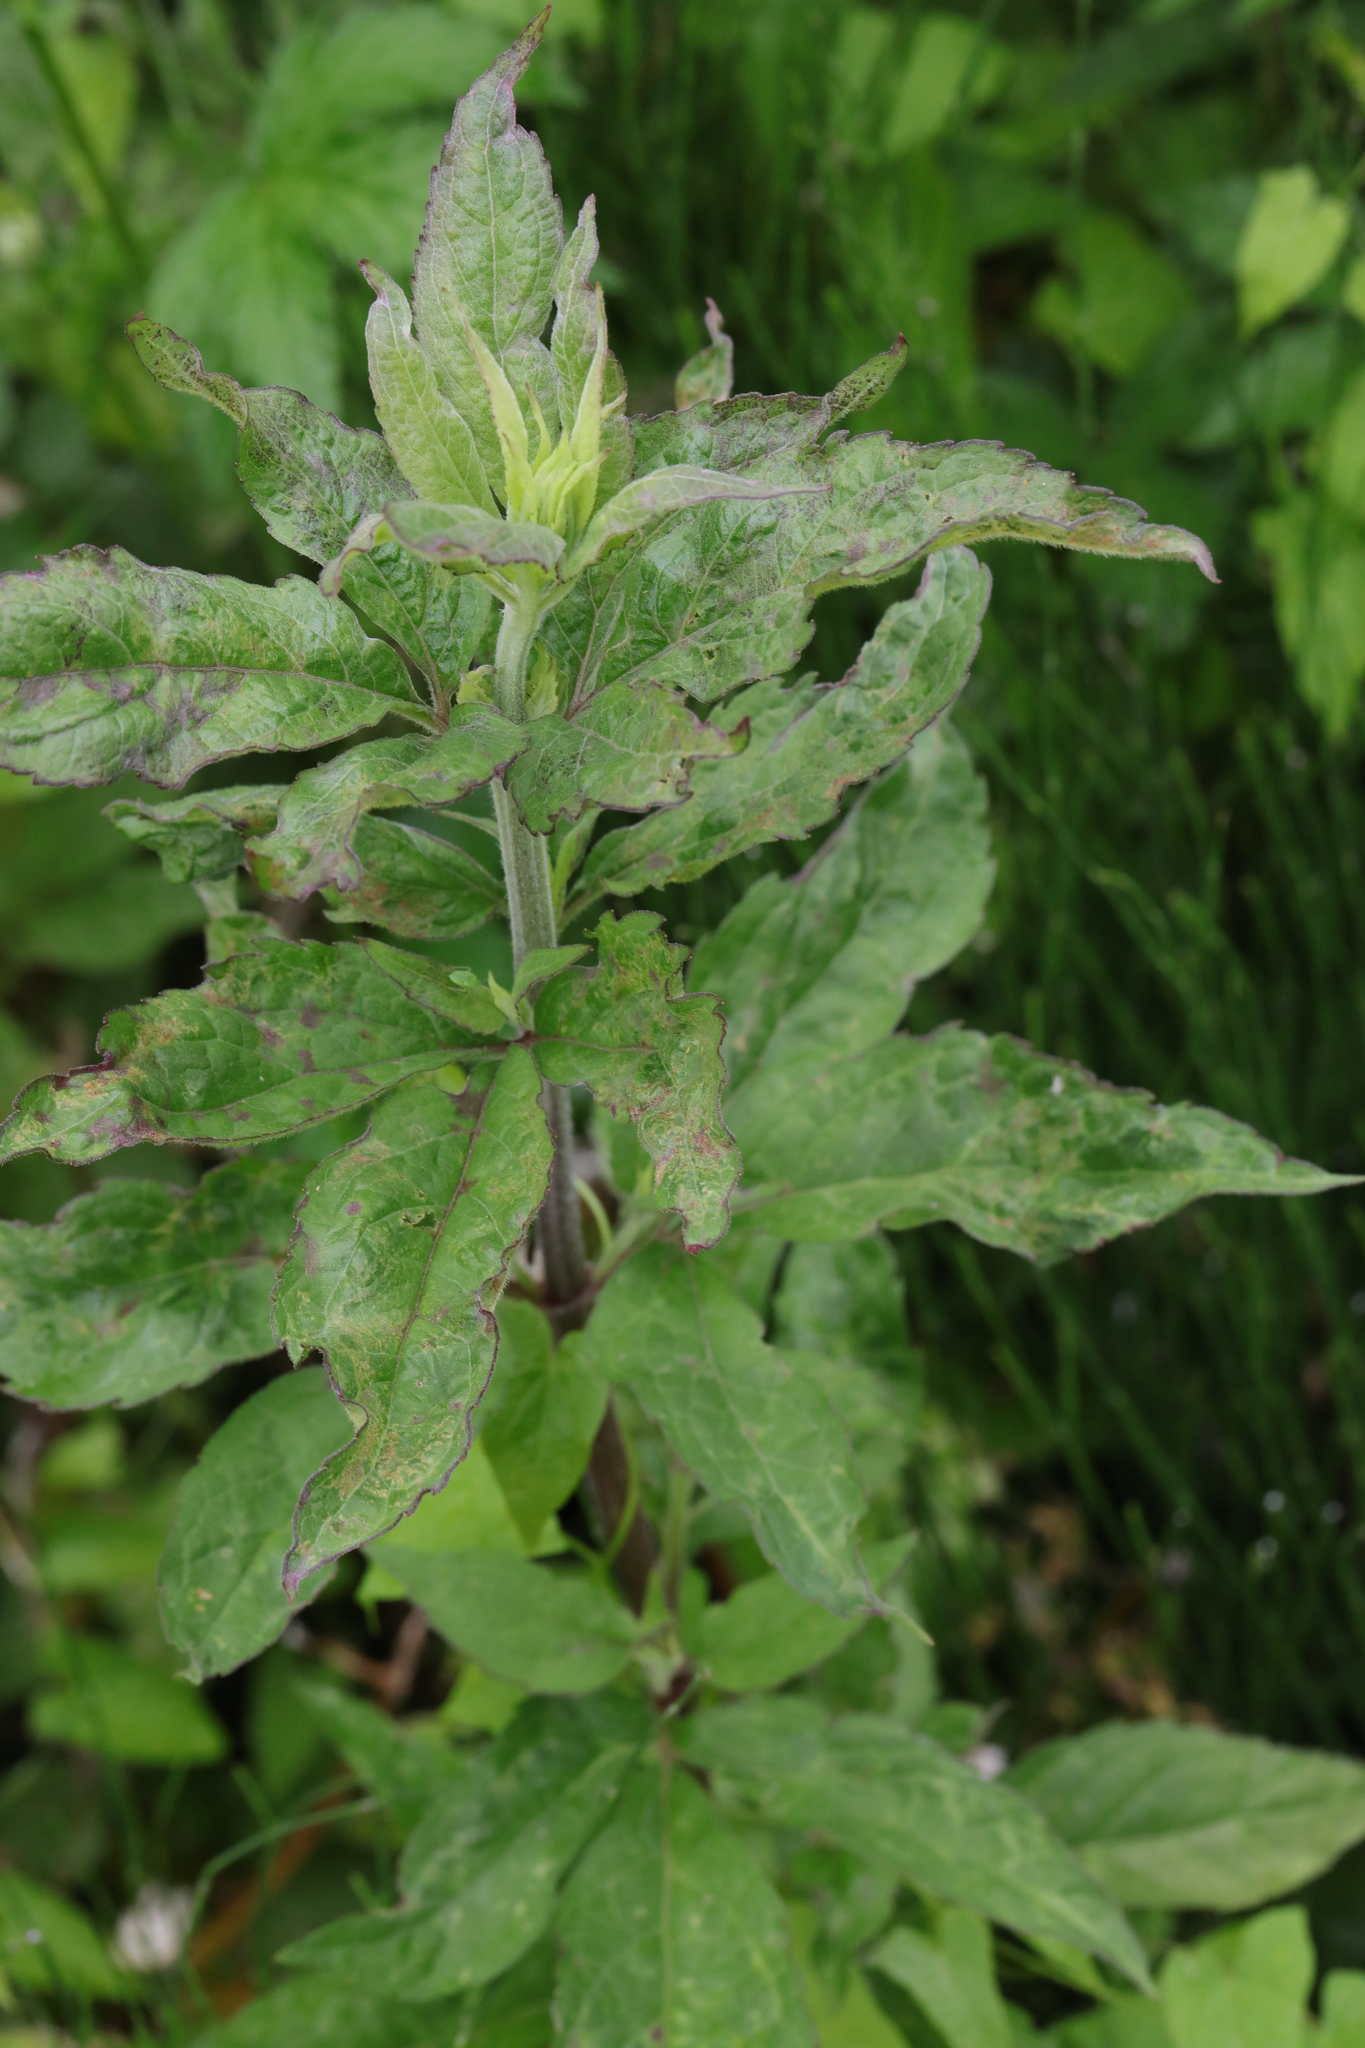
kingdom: Plantae
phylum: Tracheophyta
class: Magnoliopsida
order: Asterales
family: Asteraceae
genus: Eupatorium
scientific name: Eupatorium cannabinum
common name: Hemp-agrimony
